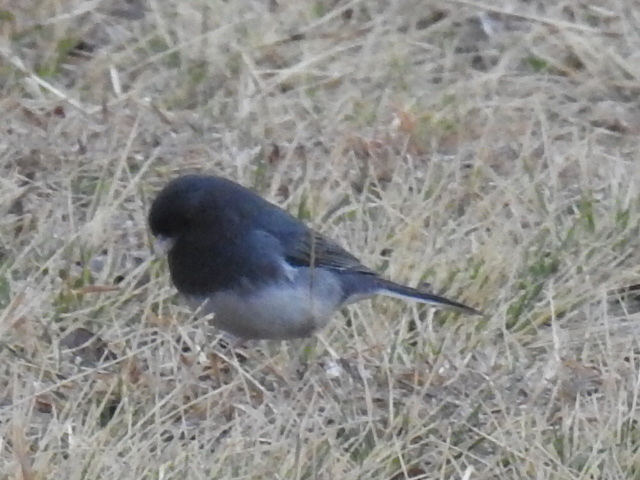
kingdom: Animalia
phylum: Chordata
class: Aves
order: Passeriformes
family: Passerellidae
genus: Junco
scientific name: Junco hyemalis
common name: Dark-eyed junco
